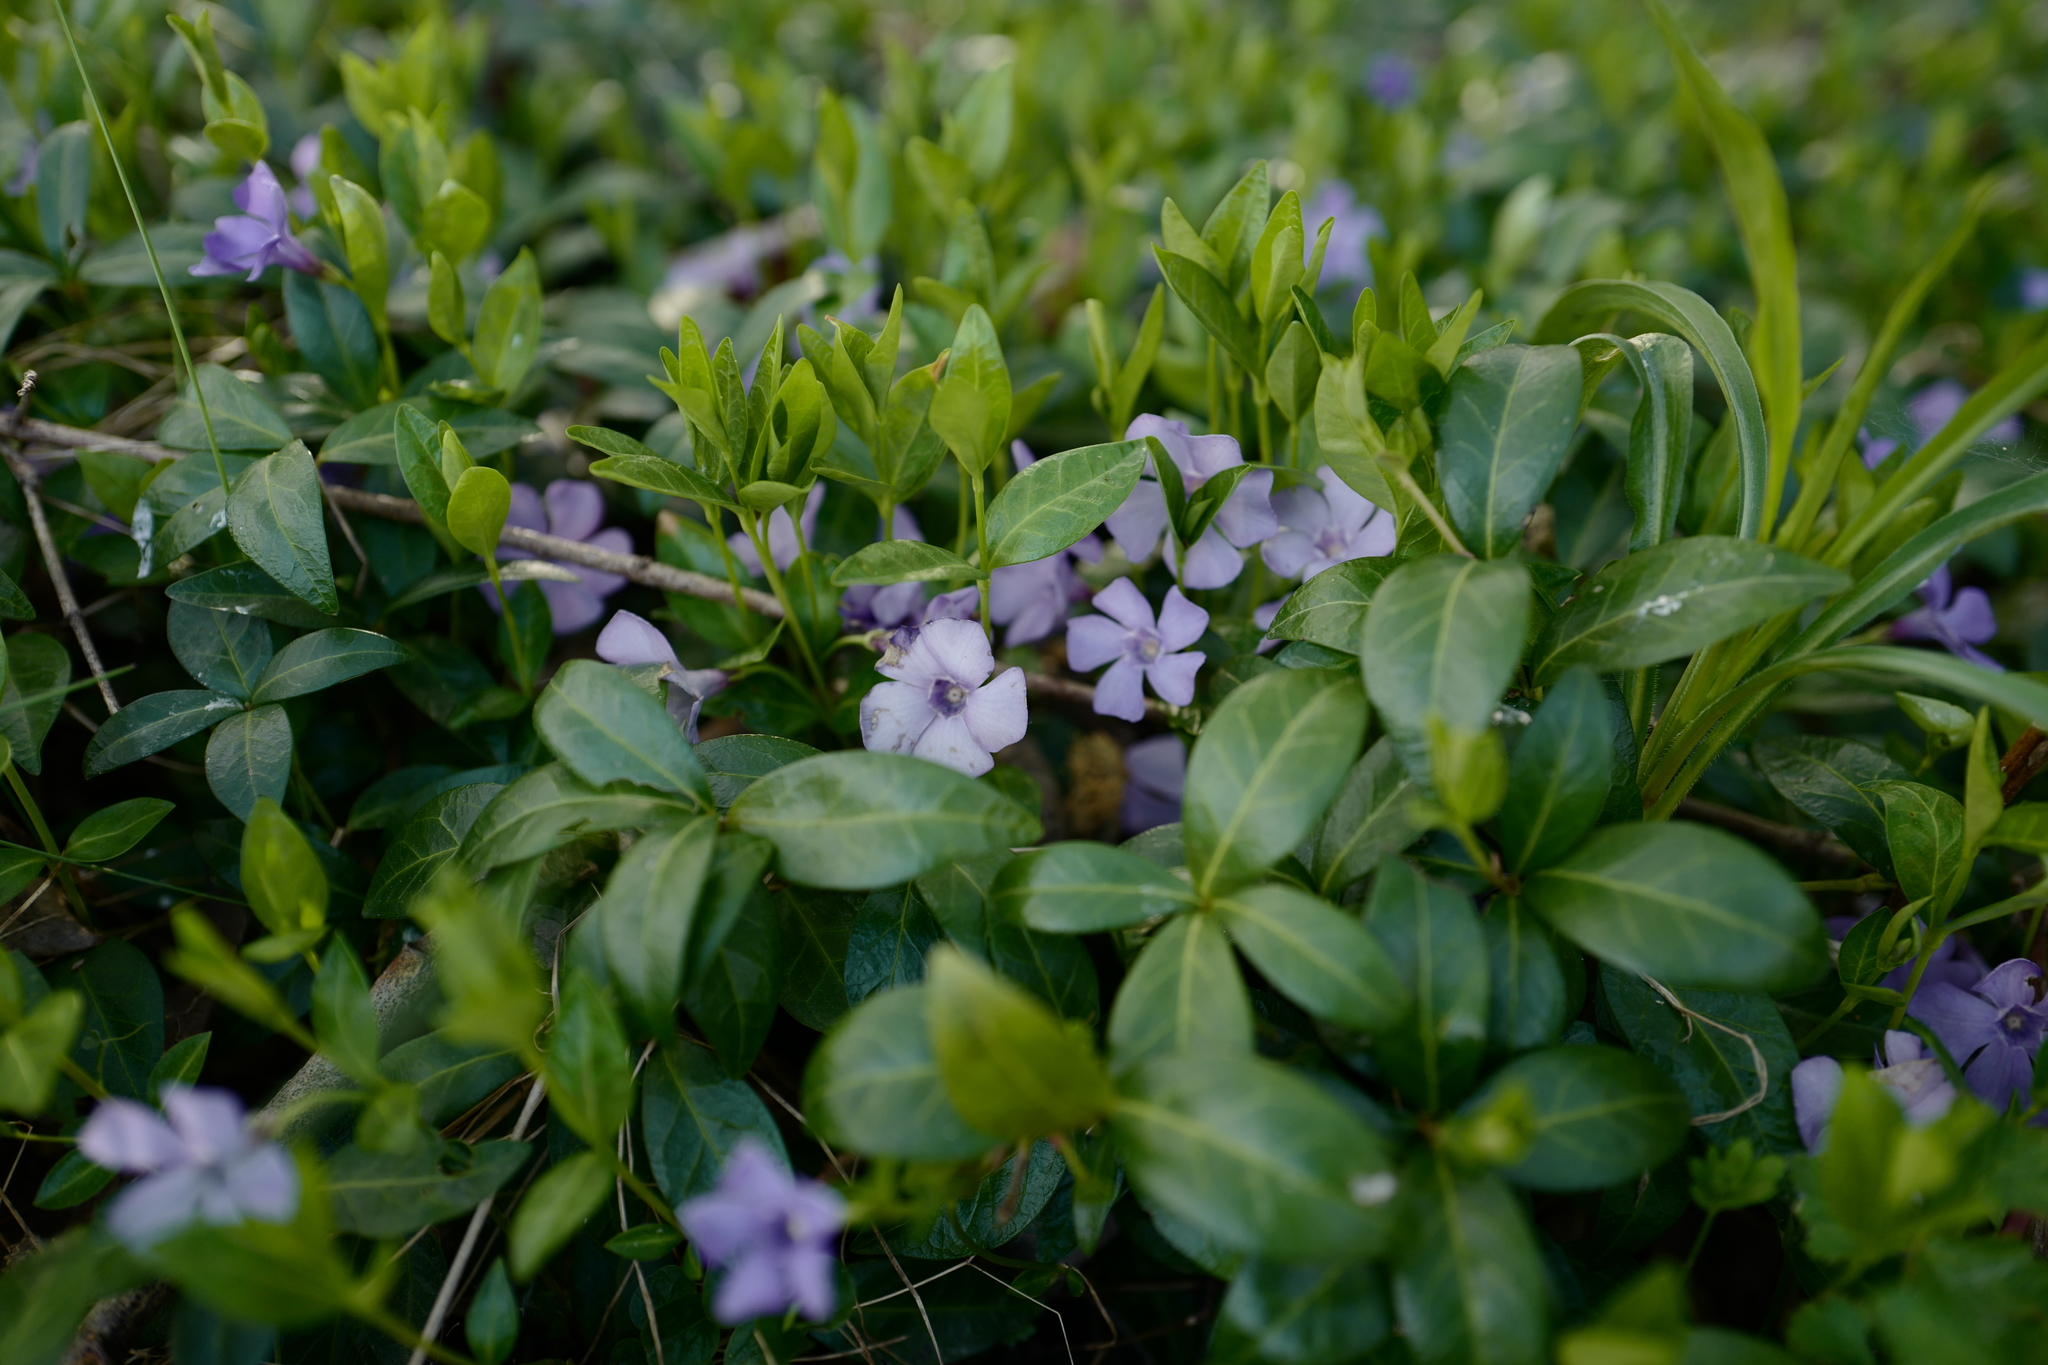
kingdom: Plantae
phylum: Tracheophyta
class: Magnoliopsida
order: Gentianales
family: Apocynaceae
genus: Vinca
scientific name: Vinca minor
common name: Lesser periwinkle
